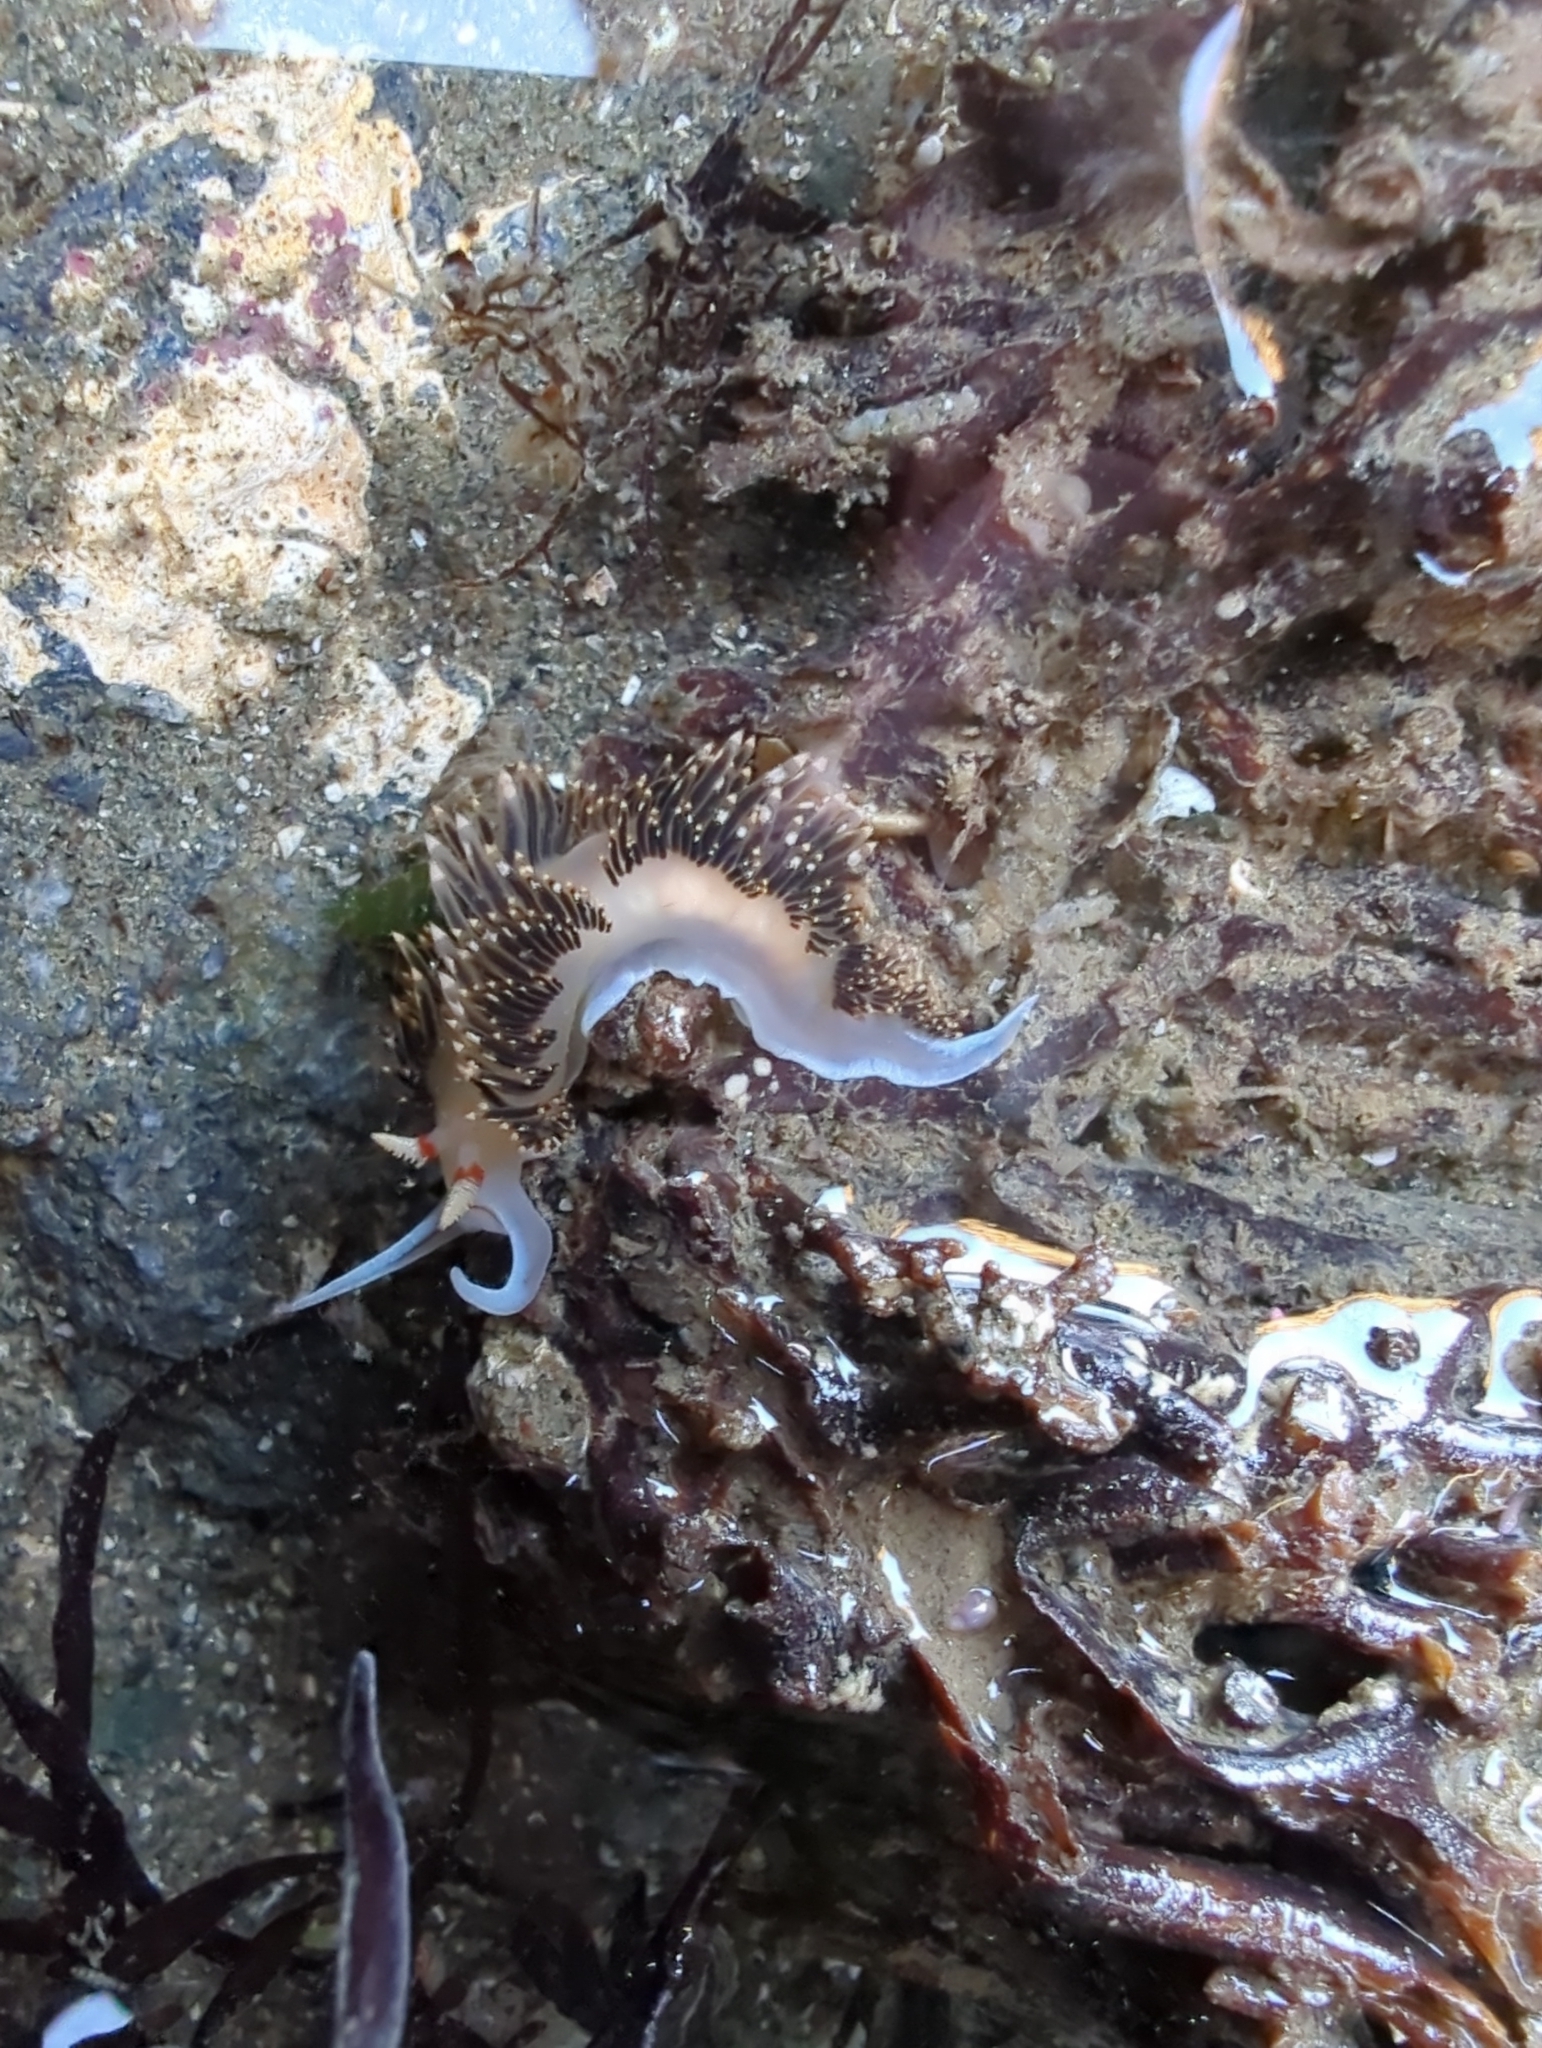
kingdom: Animalia
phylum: Mollusca
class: Gastropoda
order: Nudibranchia
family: Facelinidae
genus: Phidiana
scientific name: Phidiana hiltoni
